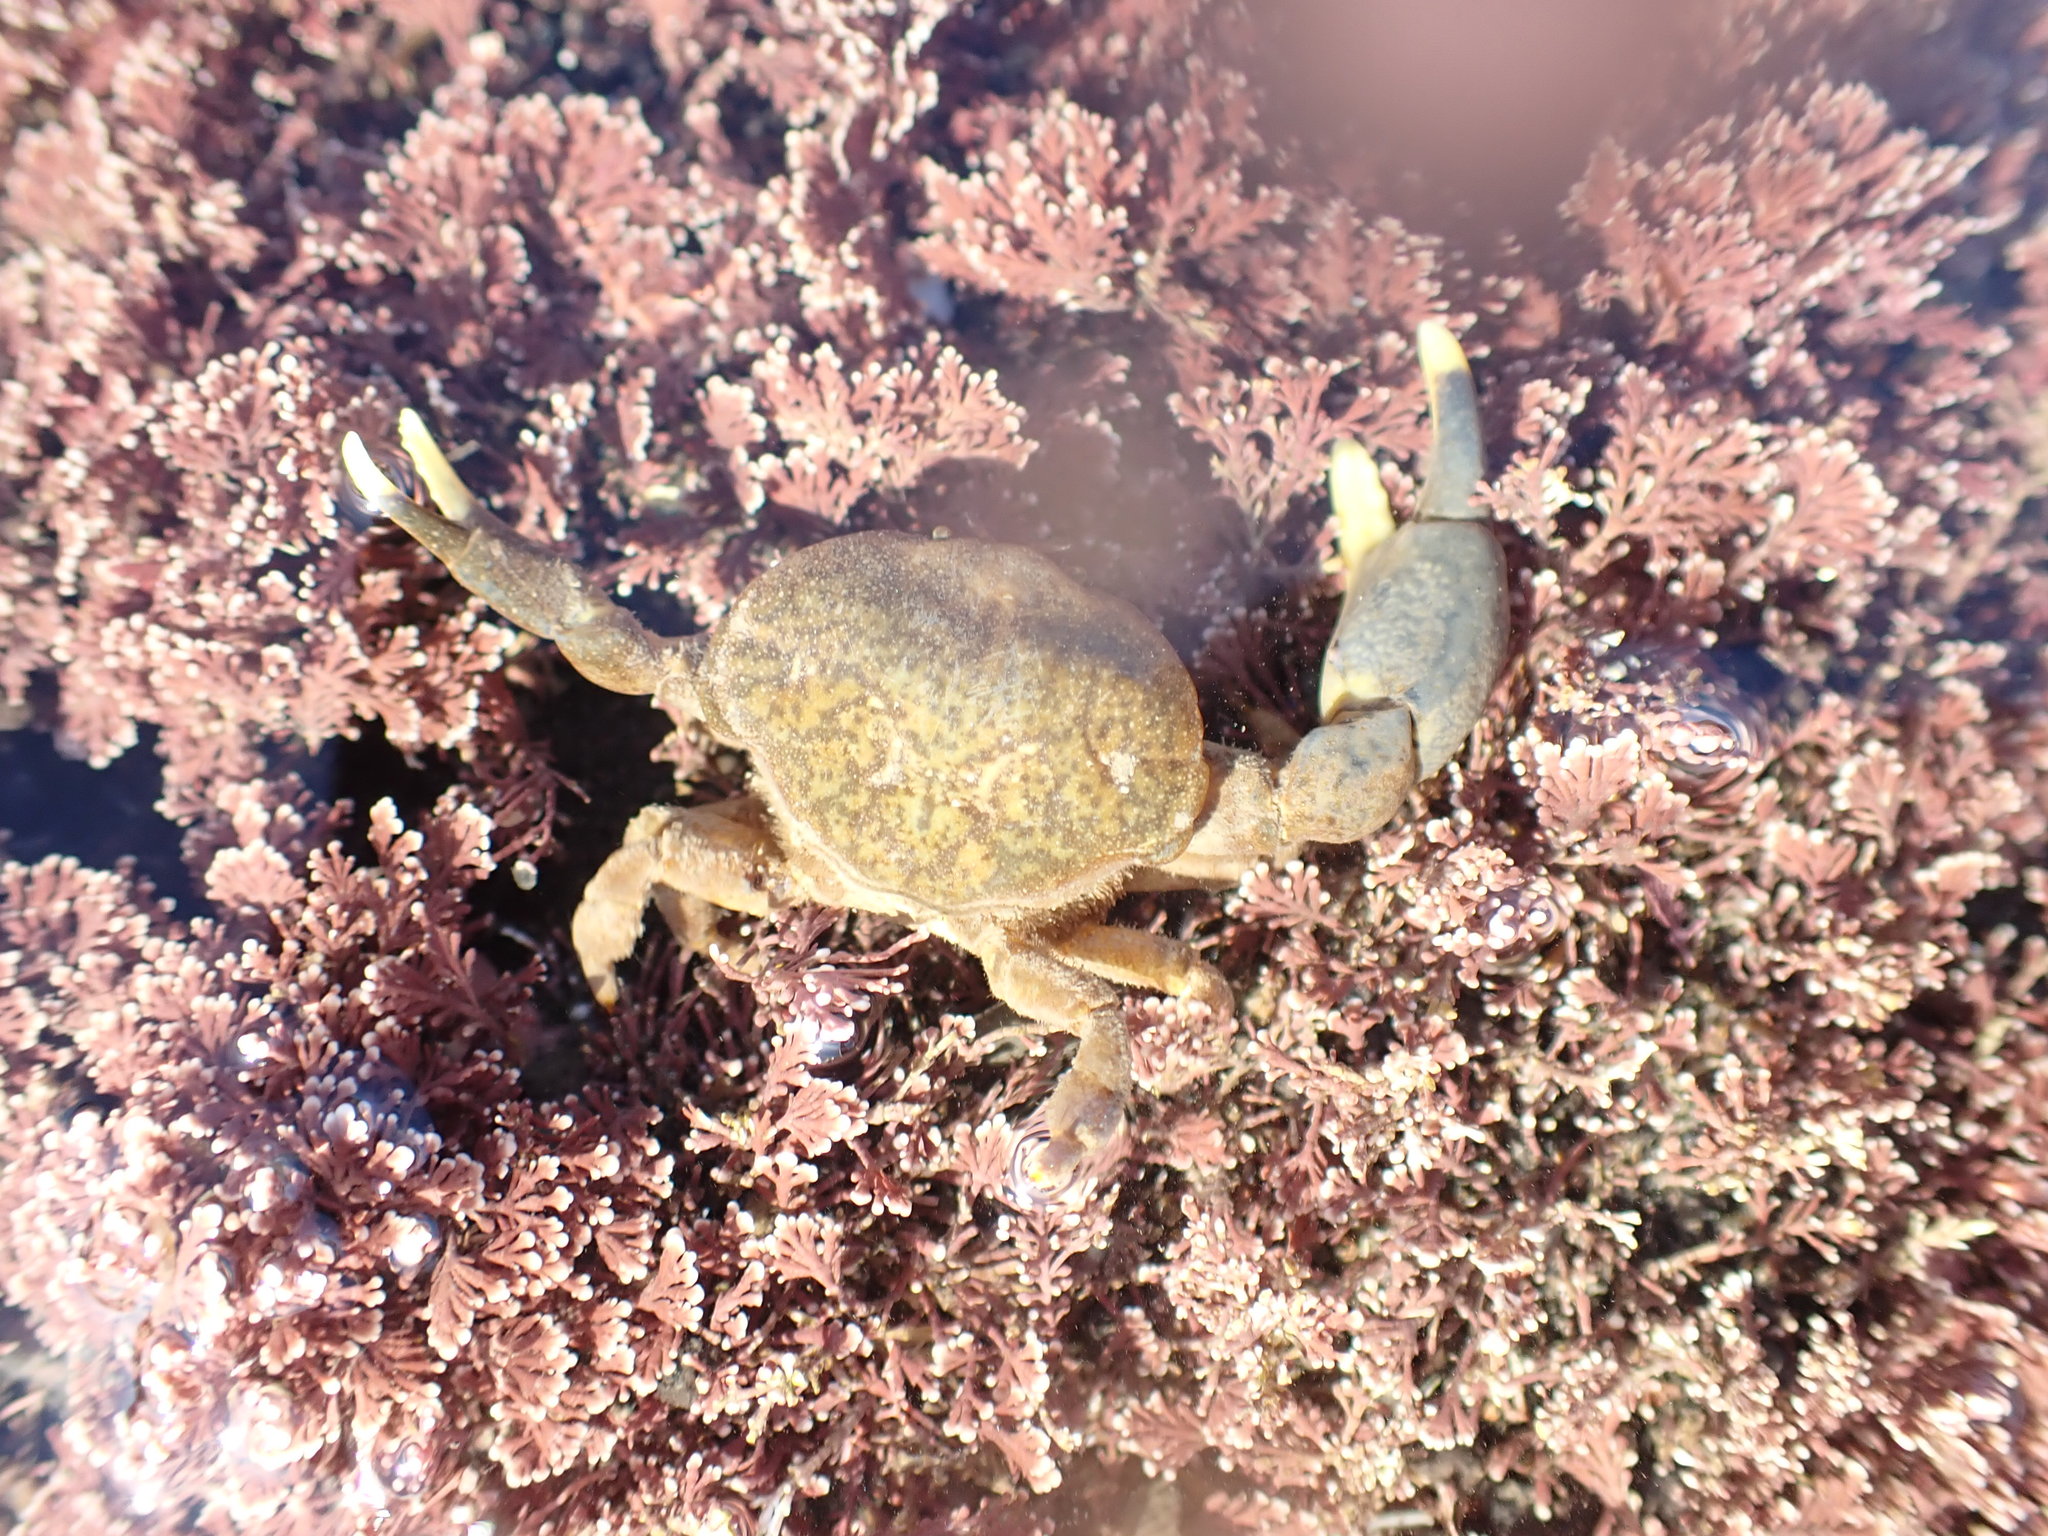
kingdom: Animalia
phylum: Arthropoda
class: Malacostraca
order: Decapoda
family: Heteroziidae
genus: Heterozius
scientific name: Heterozius rotundifrons
